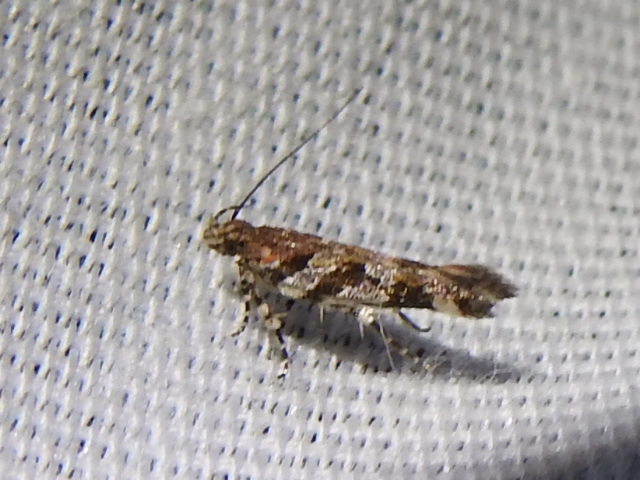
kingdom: Animalia
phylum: Arthropoda
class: Insecta
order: Lepidoptera
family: Gelechiidae
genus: Aristotelia
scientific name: Aristotelia roseosuffusella
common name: Pink-washed aristotelia moth
